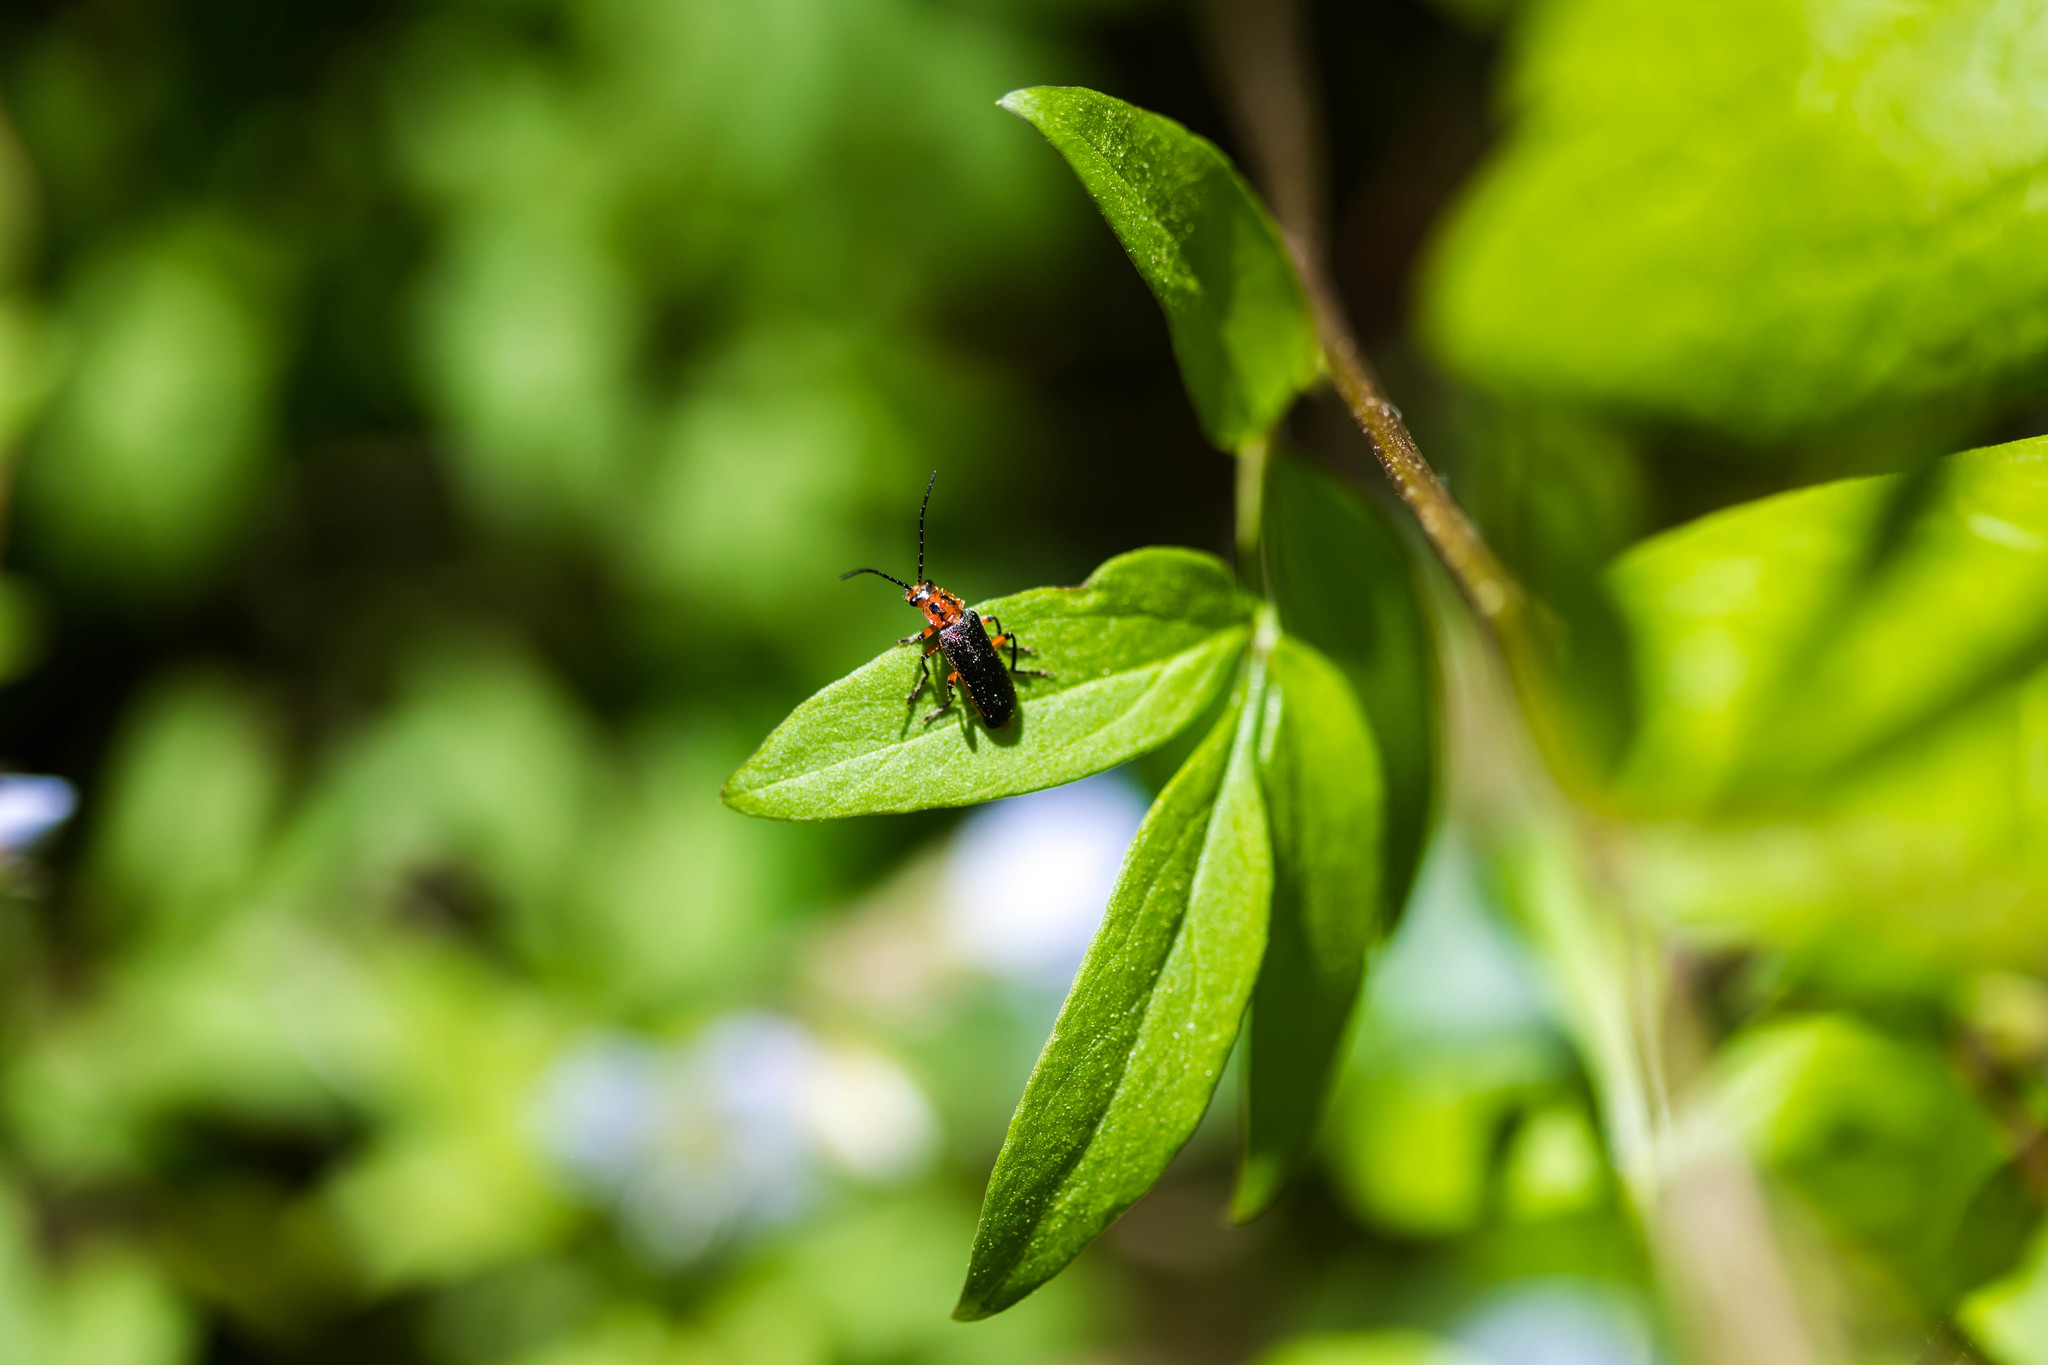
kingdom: Animalia
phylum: Arthropoda
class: Insecta
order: Coleoptera
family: Cantharidae
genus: Atalantycha
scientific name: Atalantycha bilineata
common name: Two-lined leatherwing
